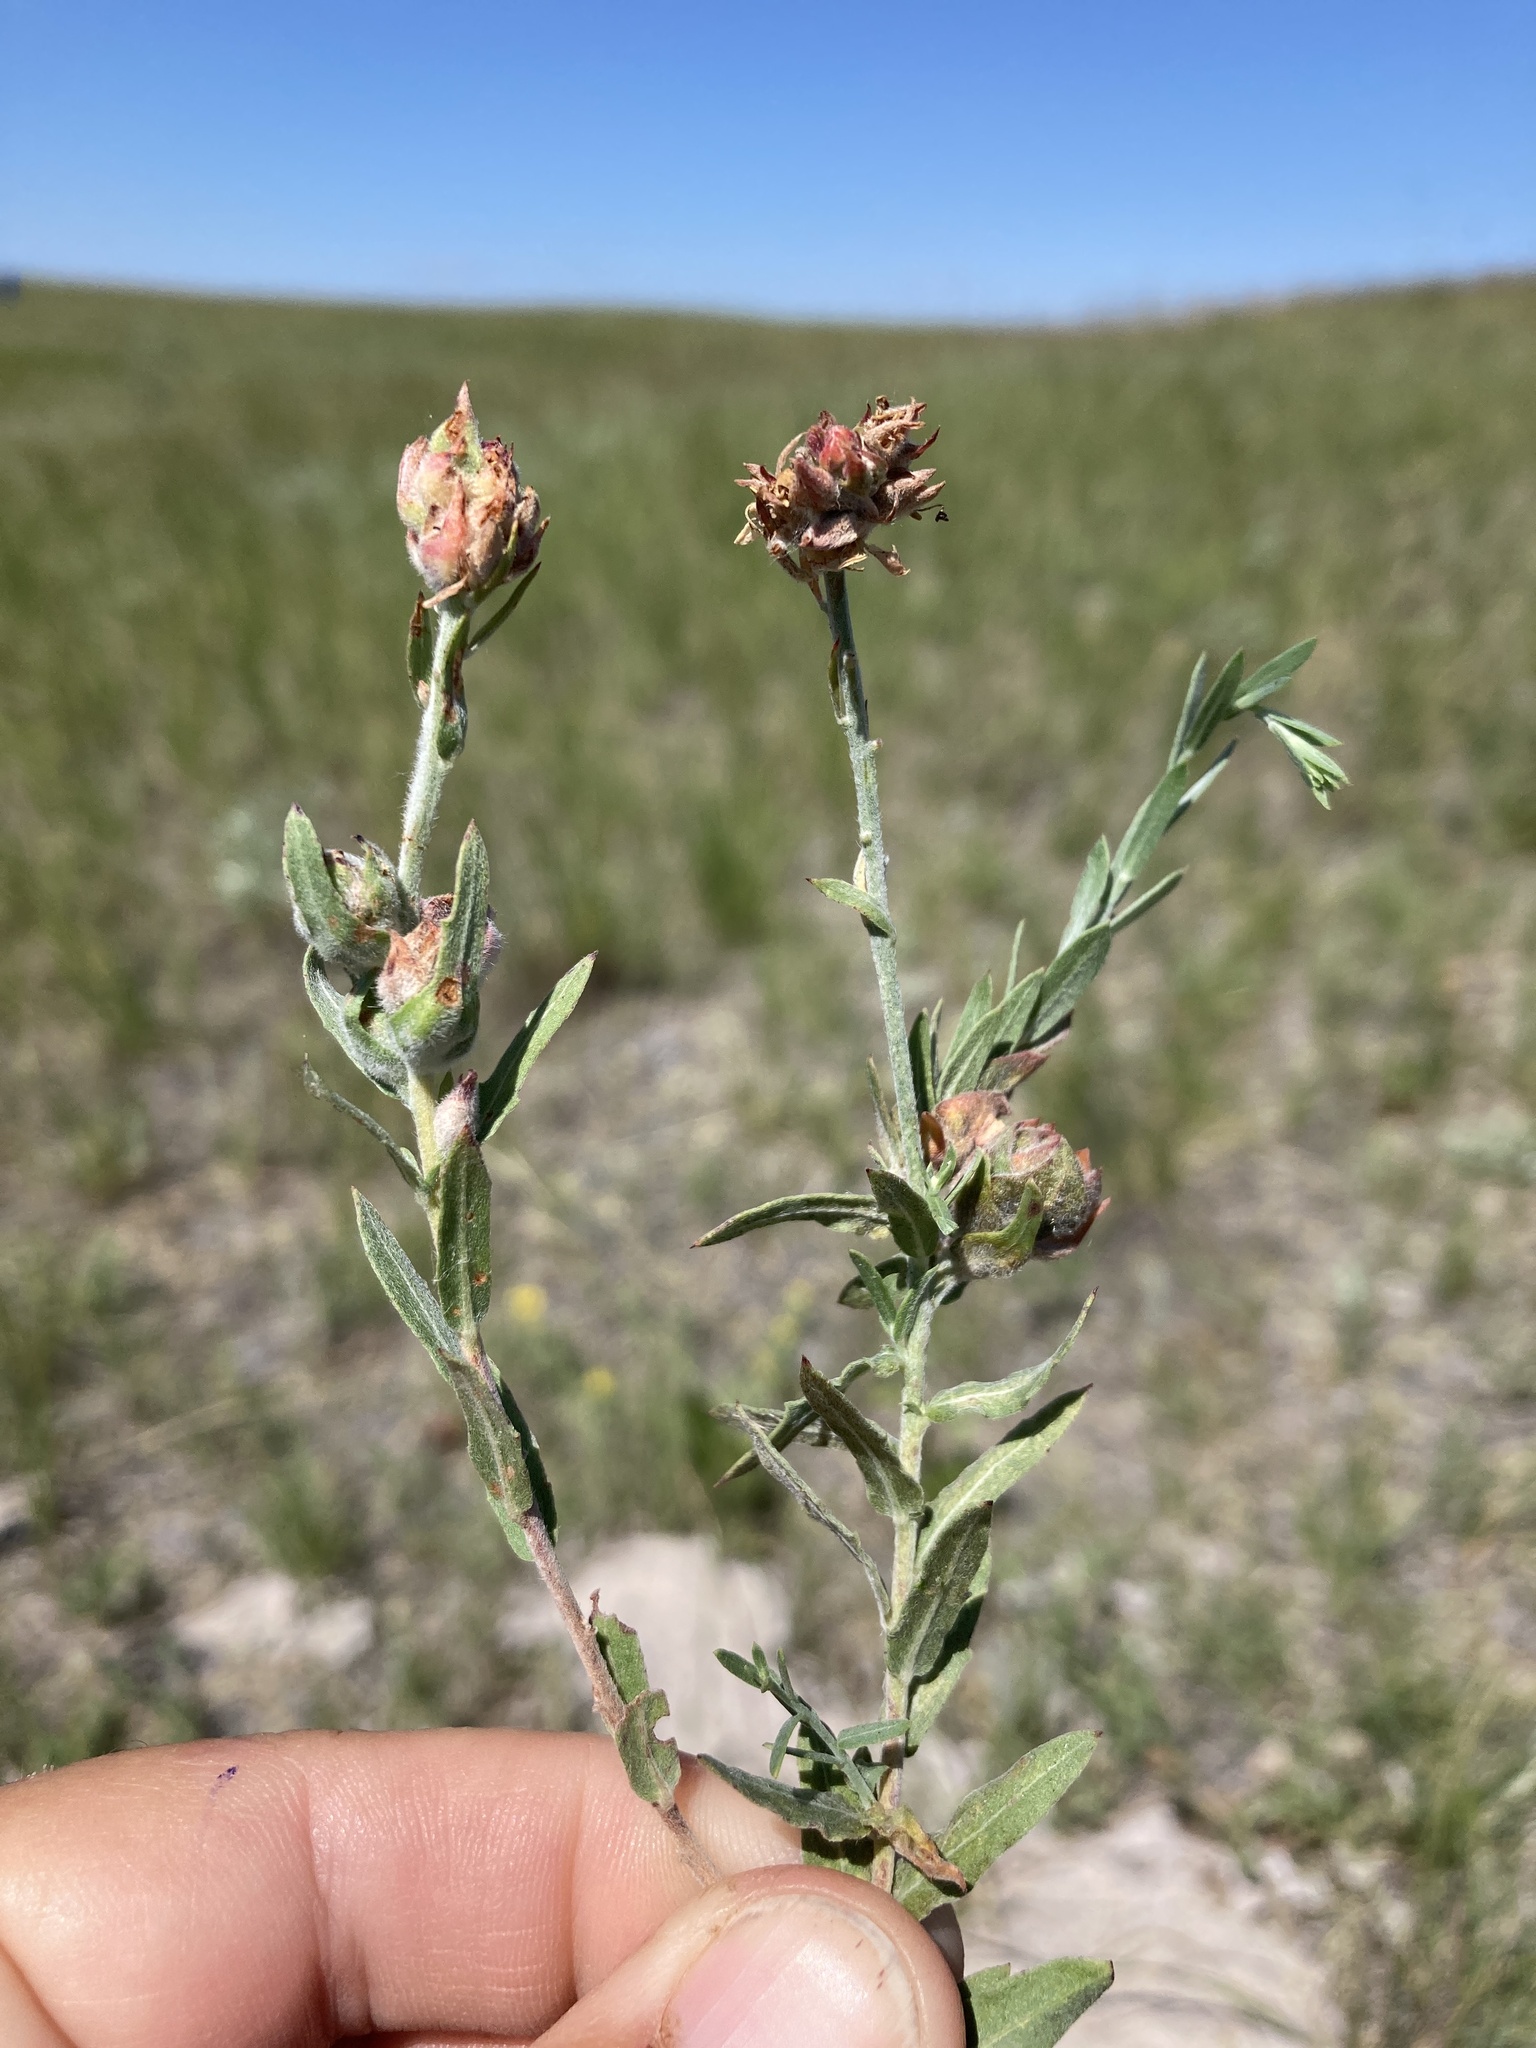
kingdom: Plantae
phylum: Tracheophyta
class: Magnoliopsida
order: Myrtales
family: Onagraceae
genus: Oenothera
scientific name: Oenothera suffrutescens
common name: Scarlet beeblossom
